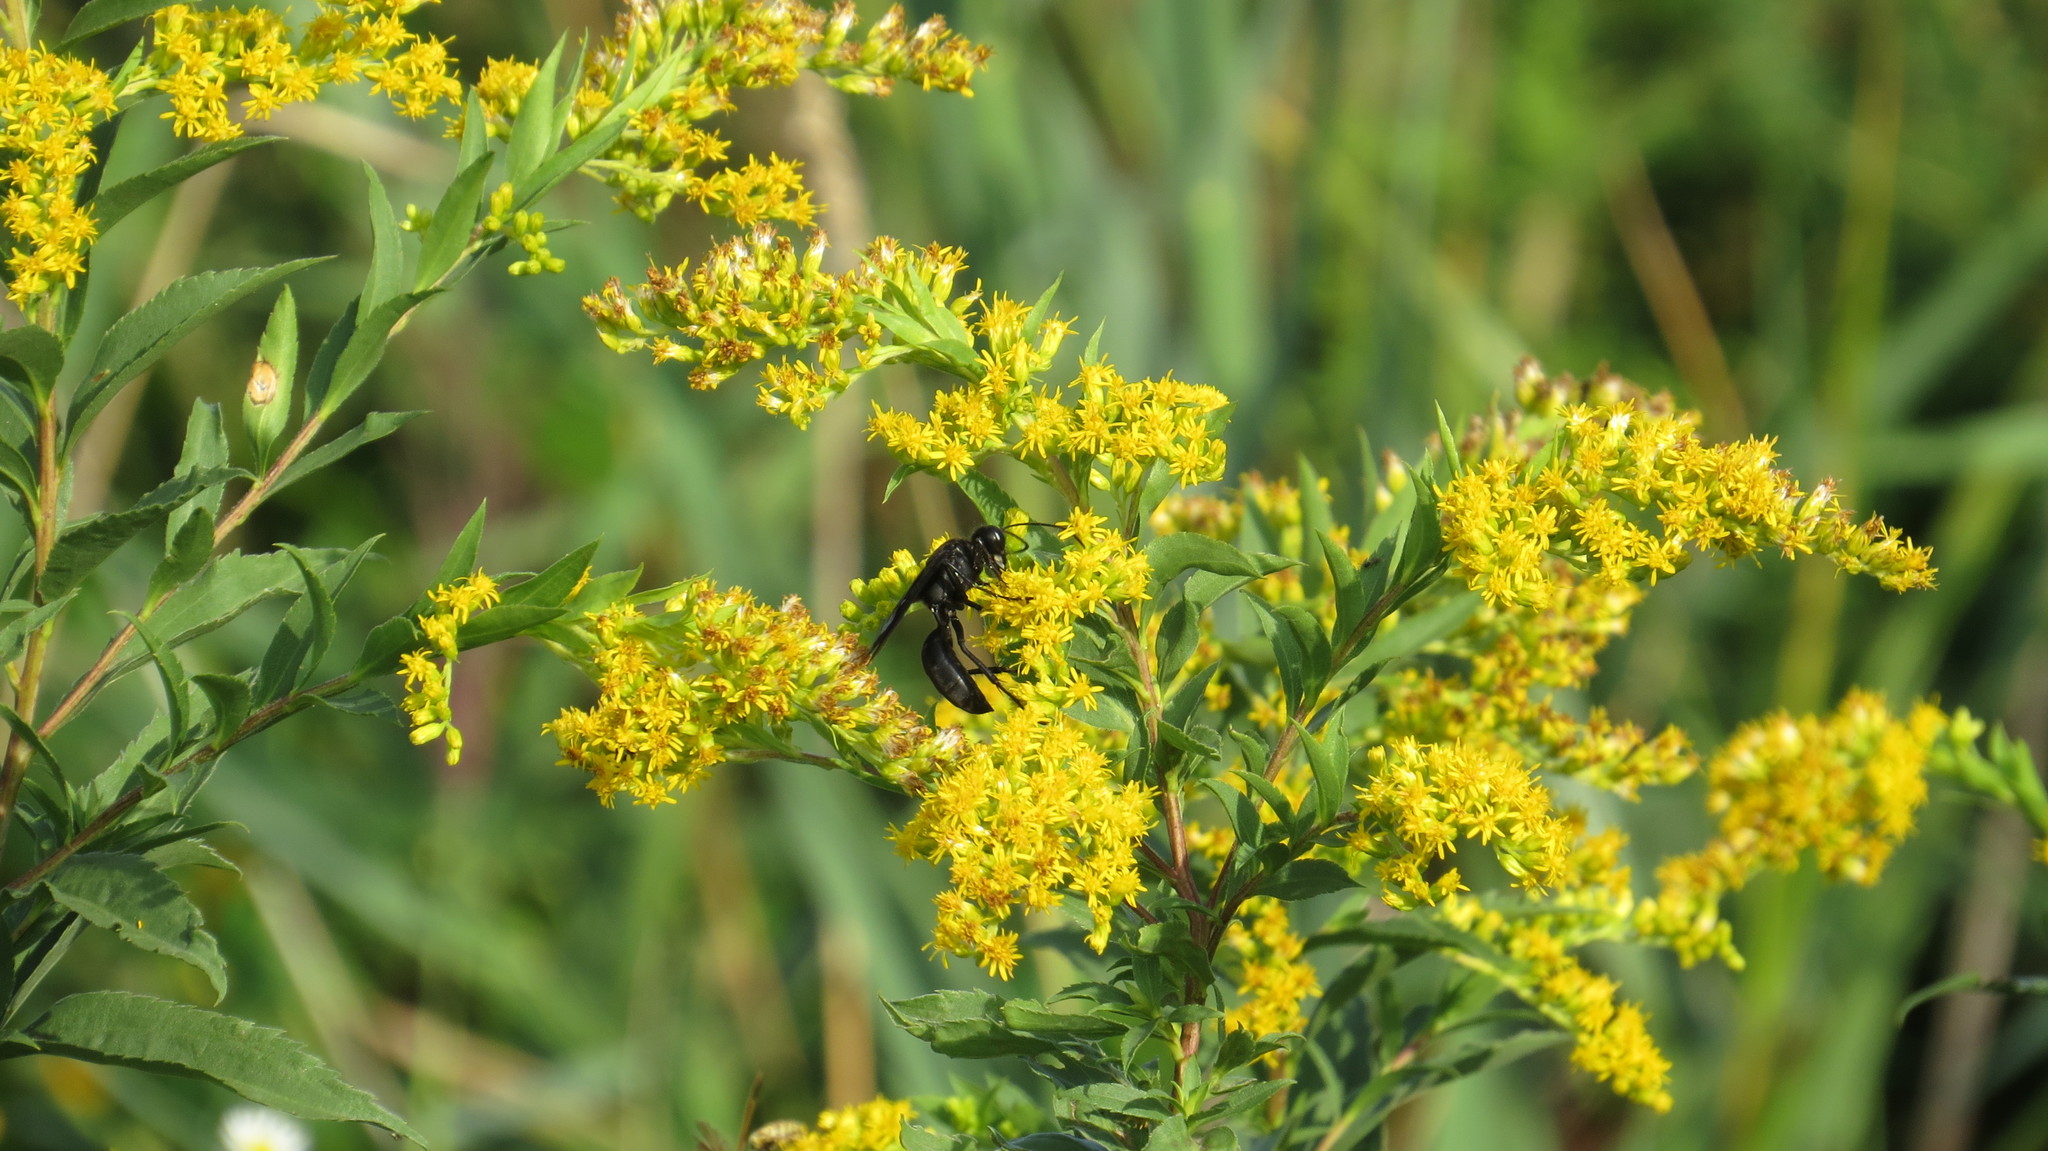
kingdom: Animalia
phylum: Arthropoda
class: Insecta
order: Hymenoptera
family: Sphecidae
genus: Sphex
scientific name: Sphex pensylvanicus
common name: Great black digger wasp
